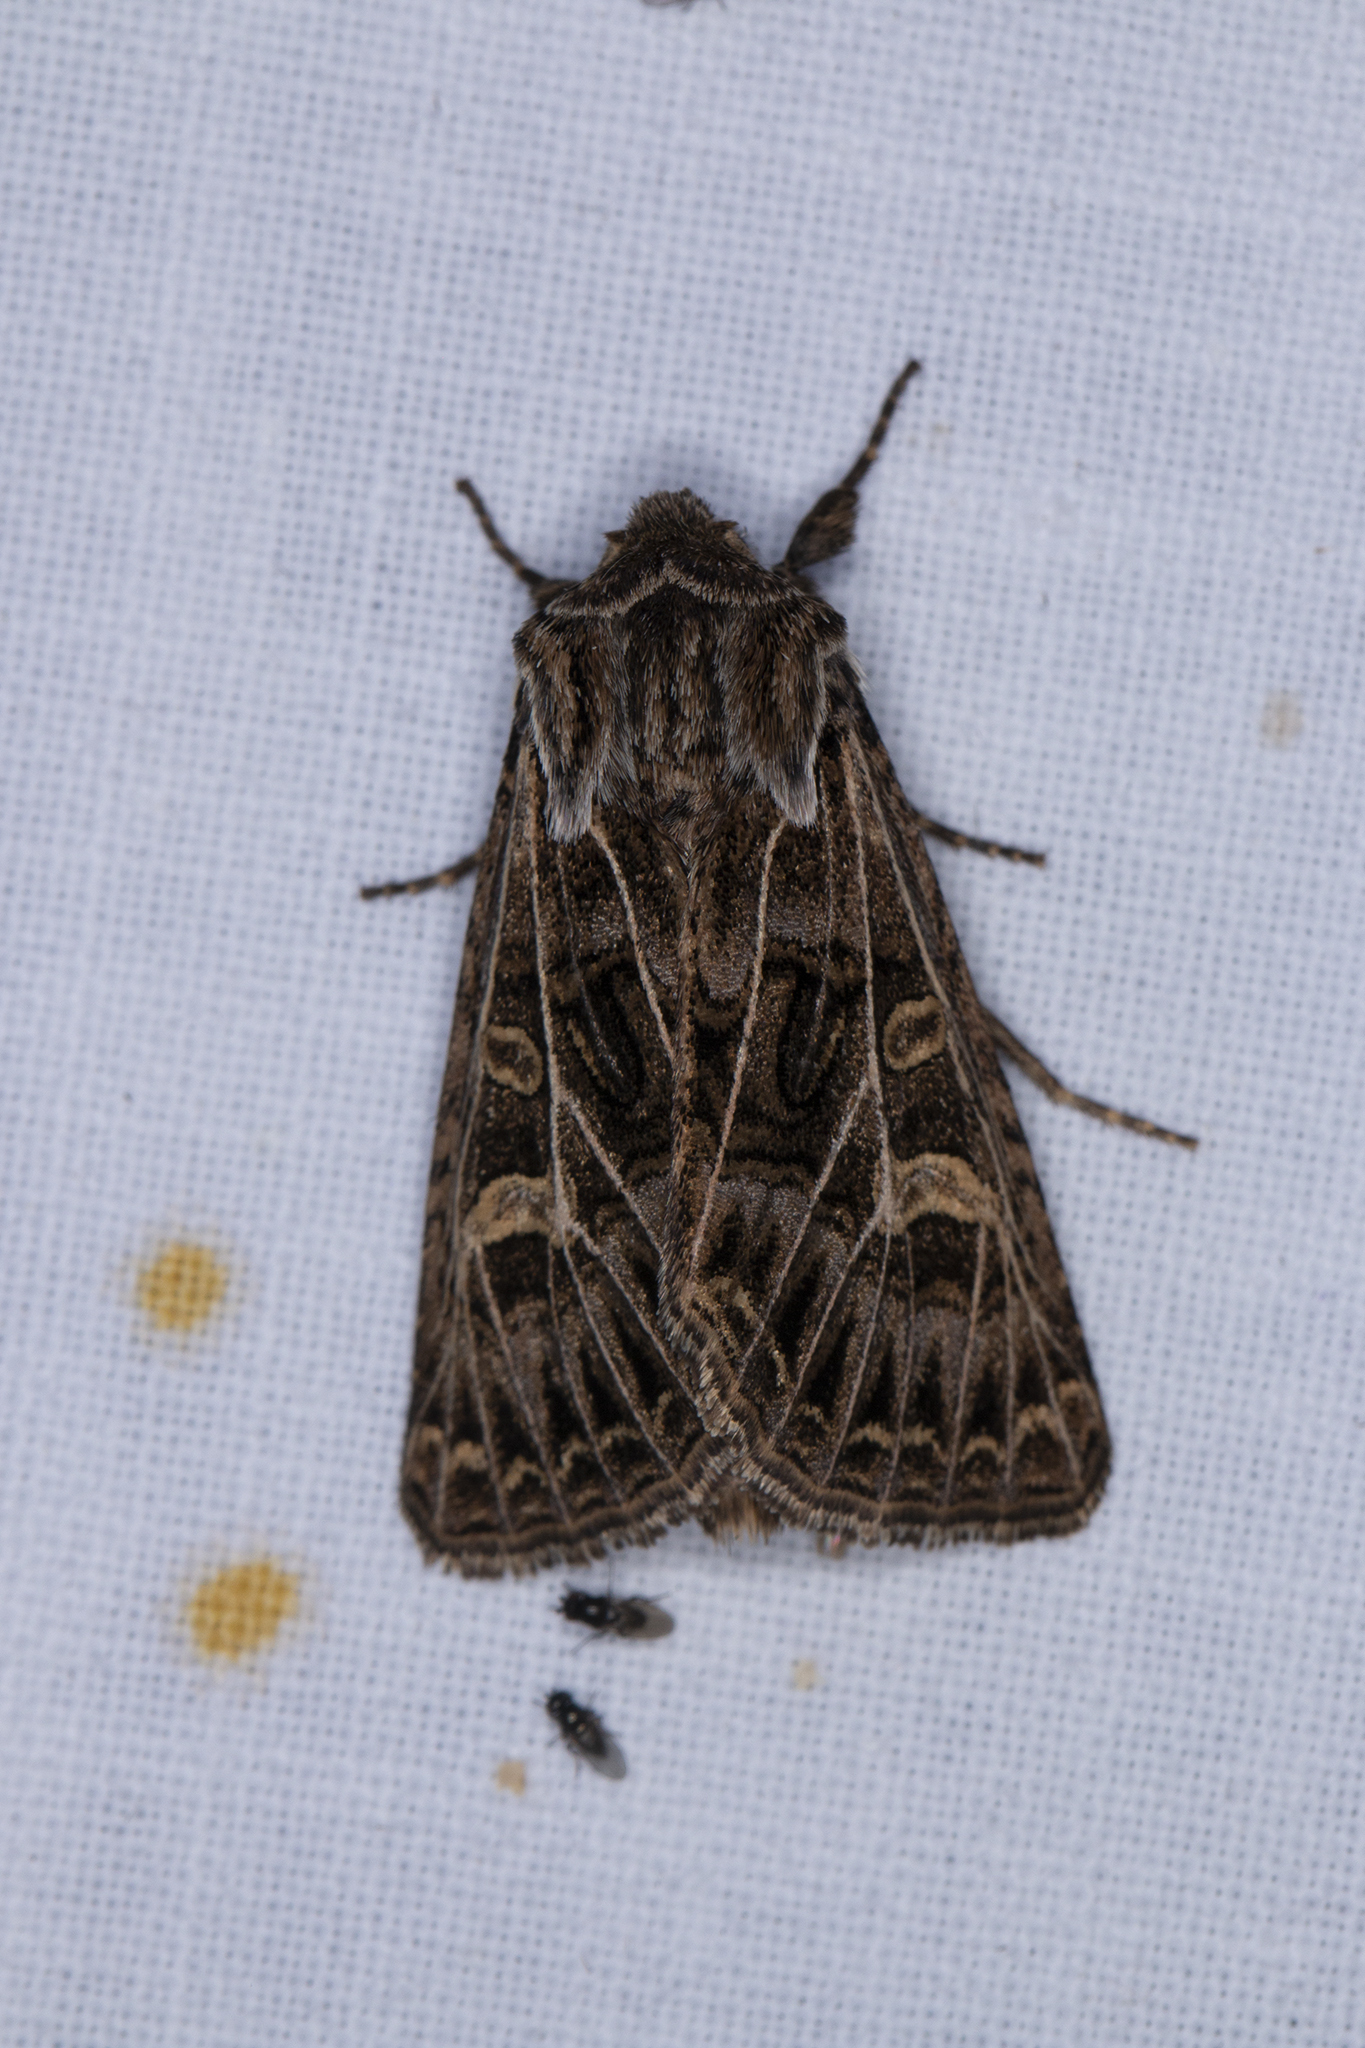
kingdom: Animalia
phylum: Arthropoda
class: Insecta
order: Lepidoptera
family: Noctuidae
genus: Tholera
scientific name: Tholera decimalis
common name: Feathered gothic
